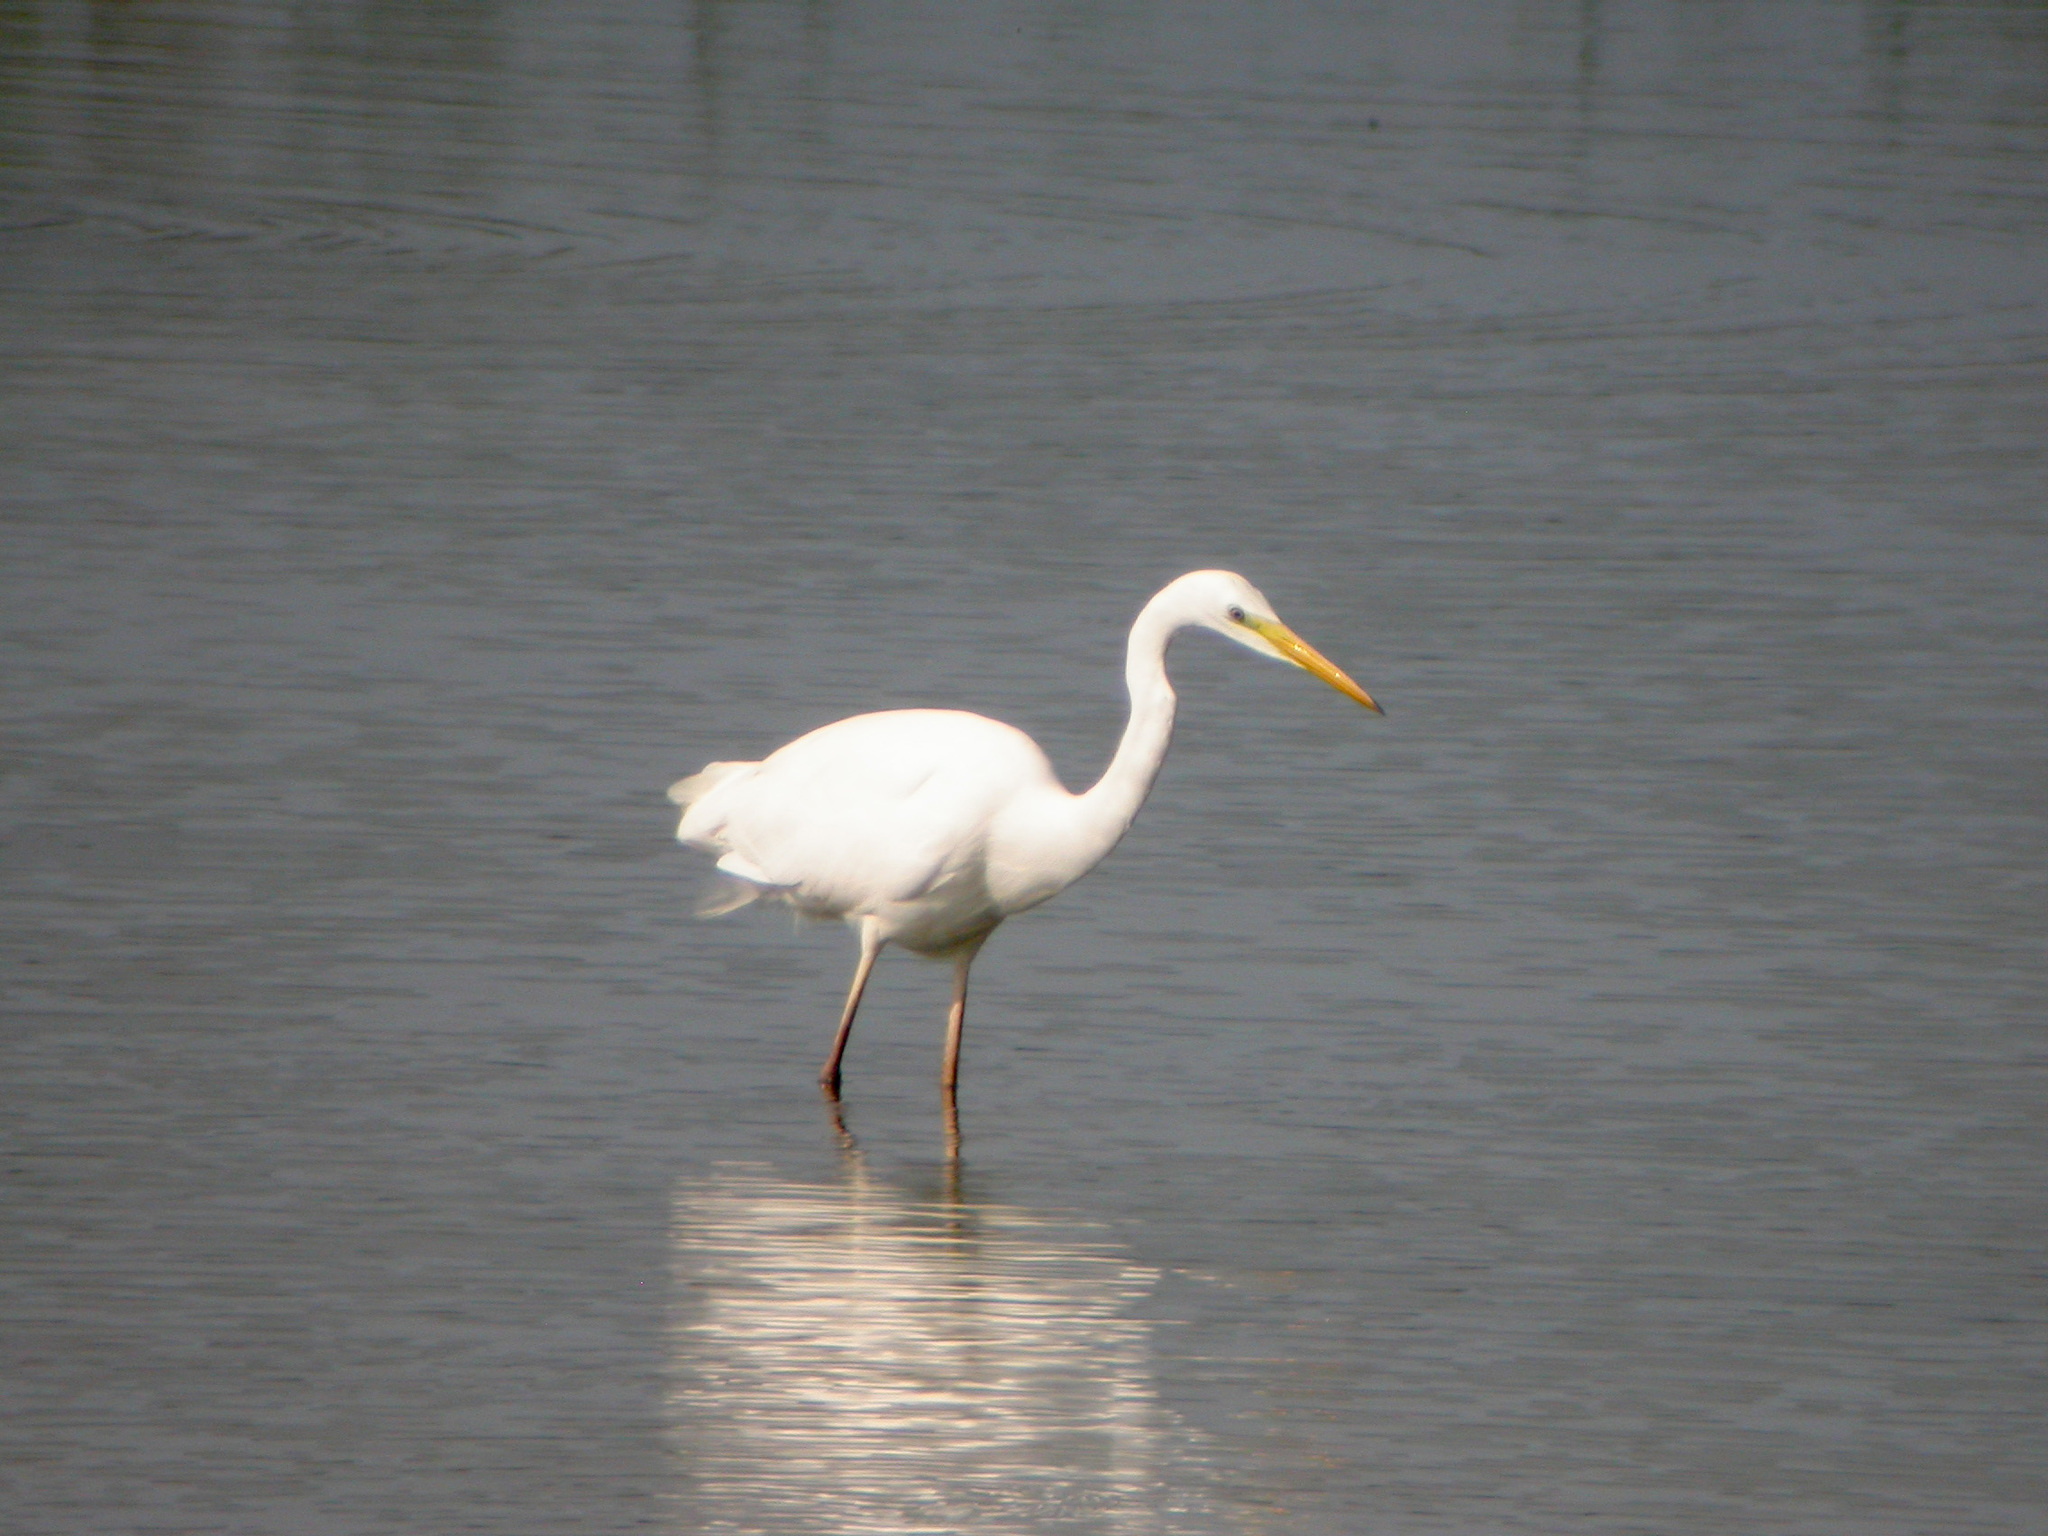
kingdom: Animalia
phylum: Chordata
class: Aves
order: Pelecaniformes
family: Ardeidae
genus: Ardea
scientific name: Ardea alba
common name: Great egret
